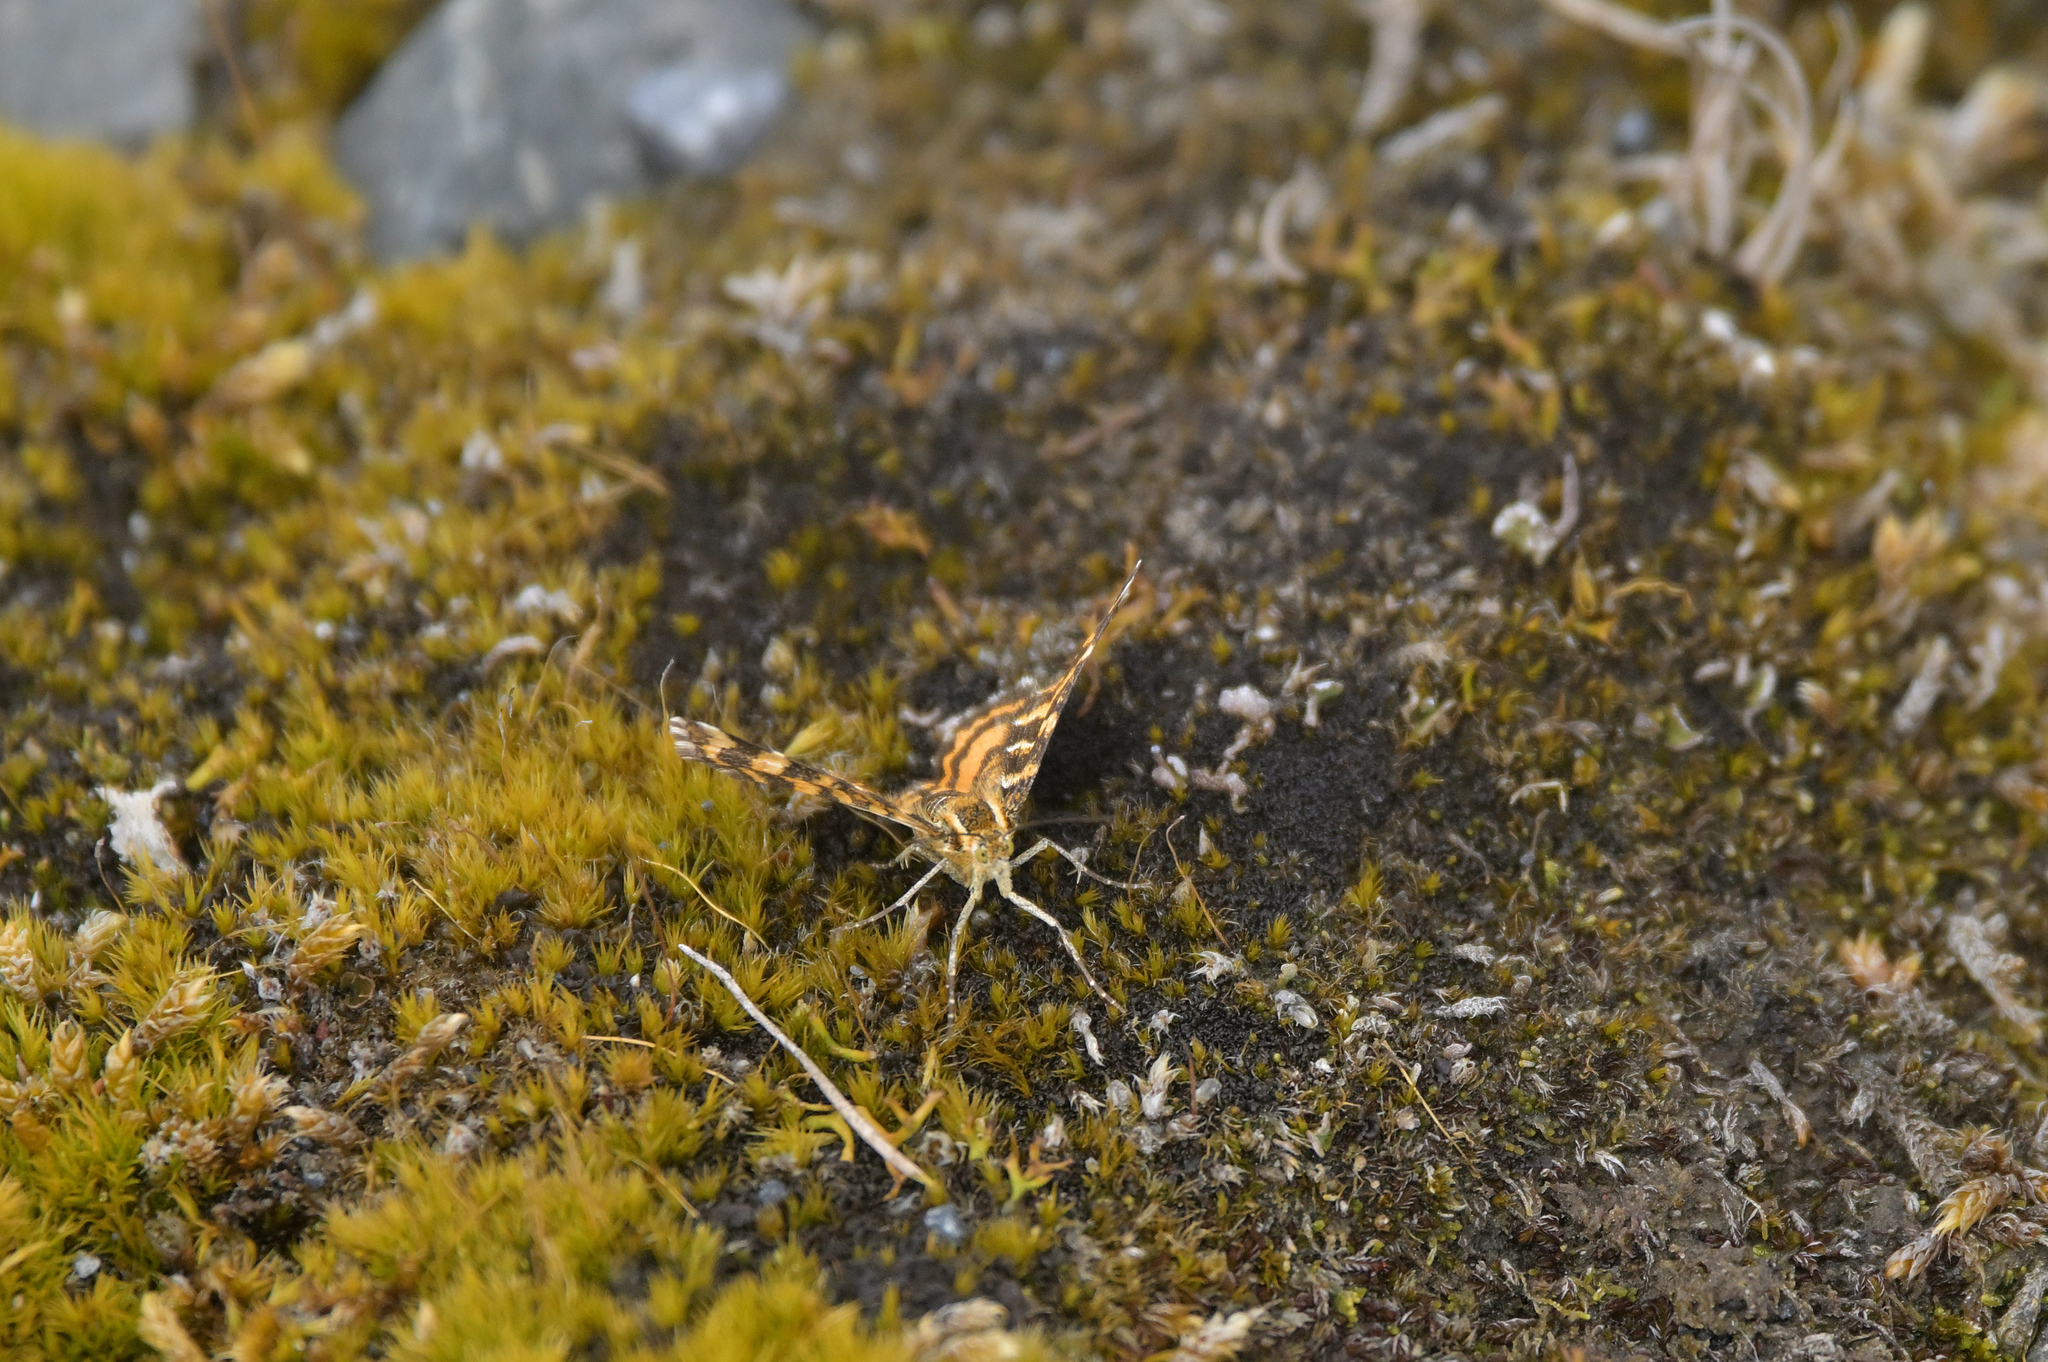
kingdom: Animalia
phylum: Arthropoda
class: Insecta
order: Lepidoptera
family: Geometridae
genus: Notoreas
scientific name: Notoreas perornata
